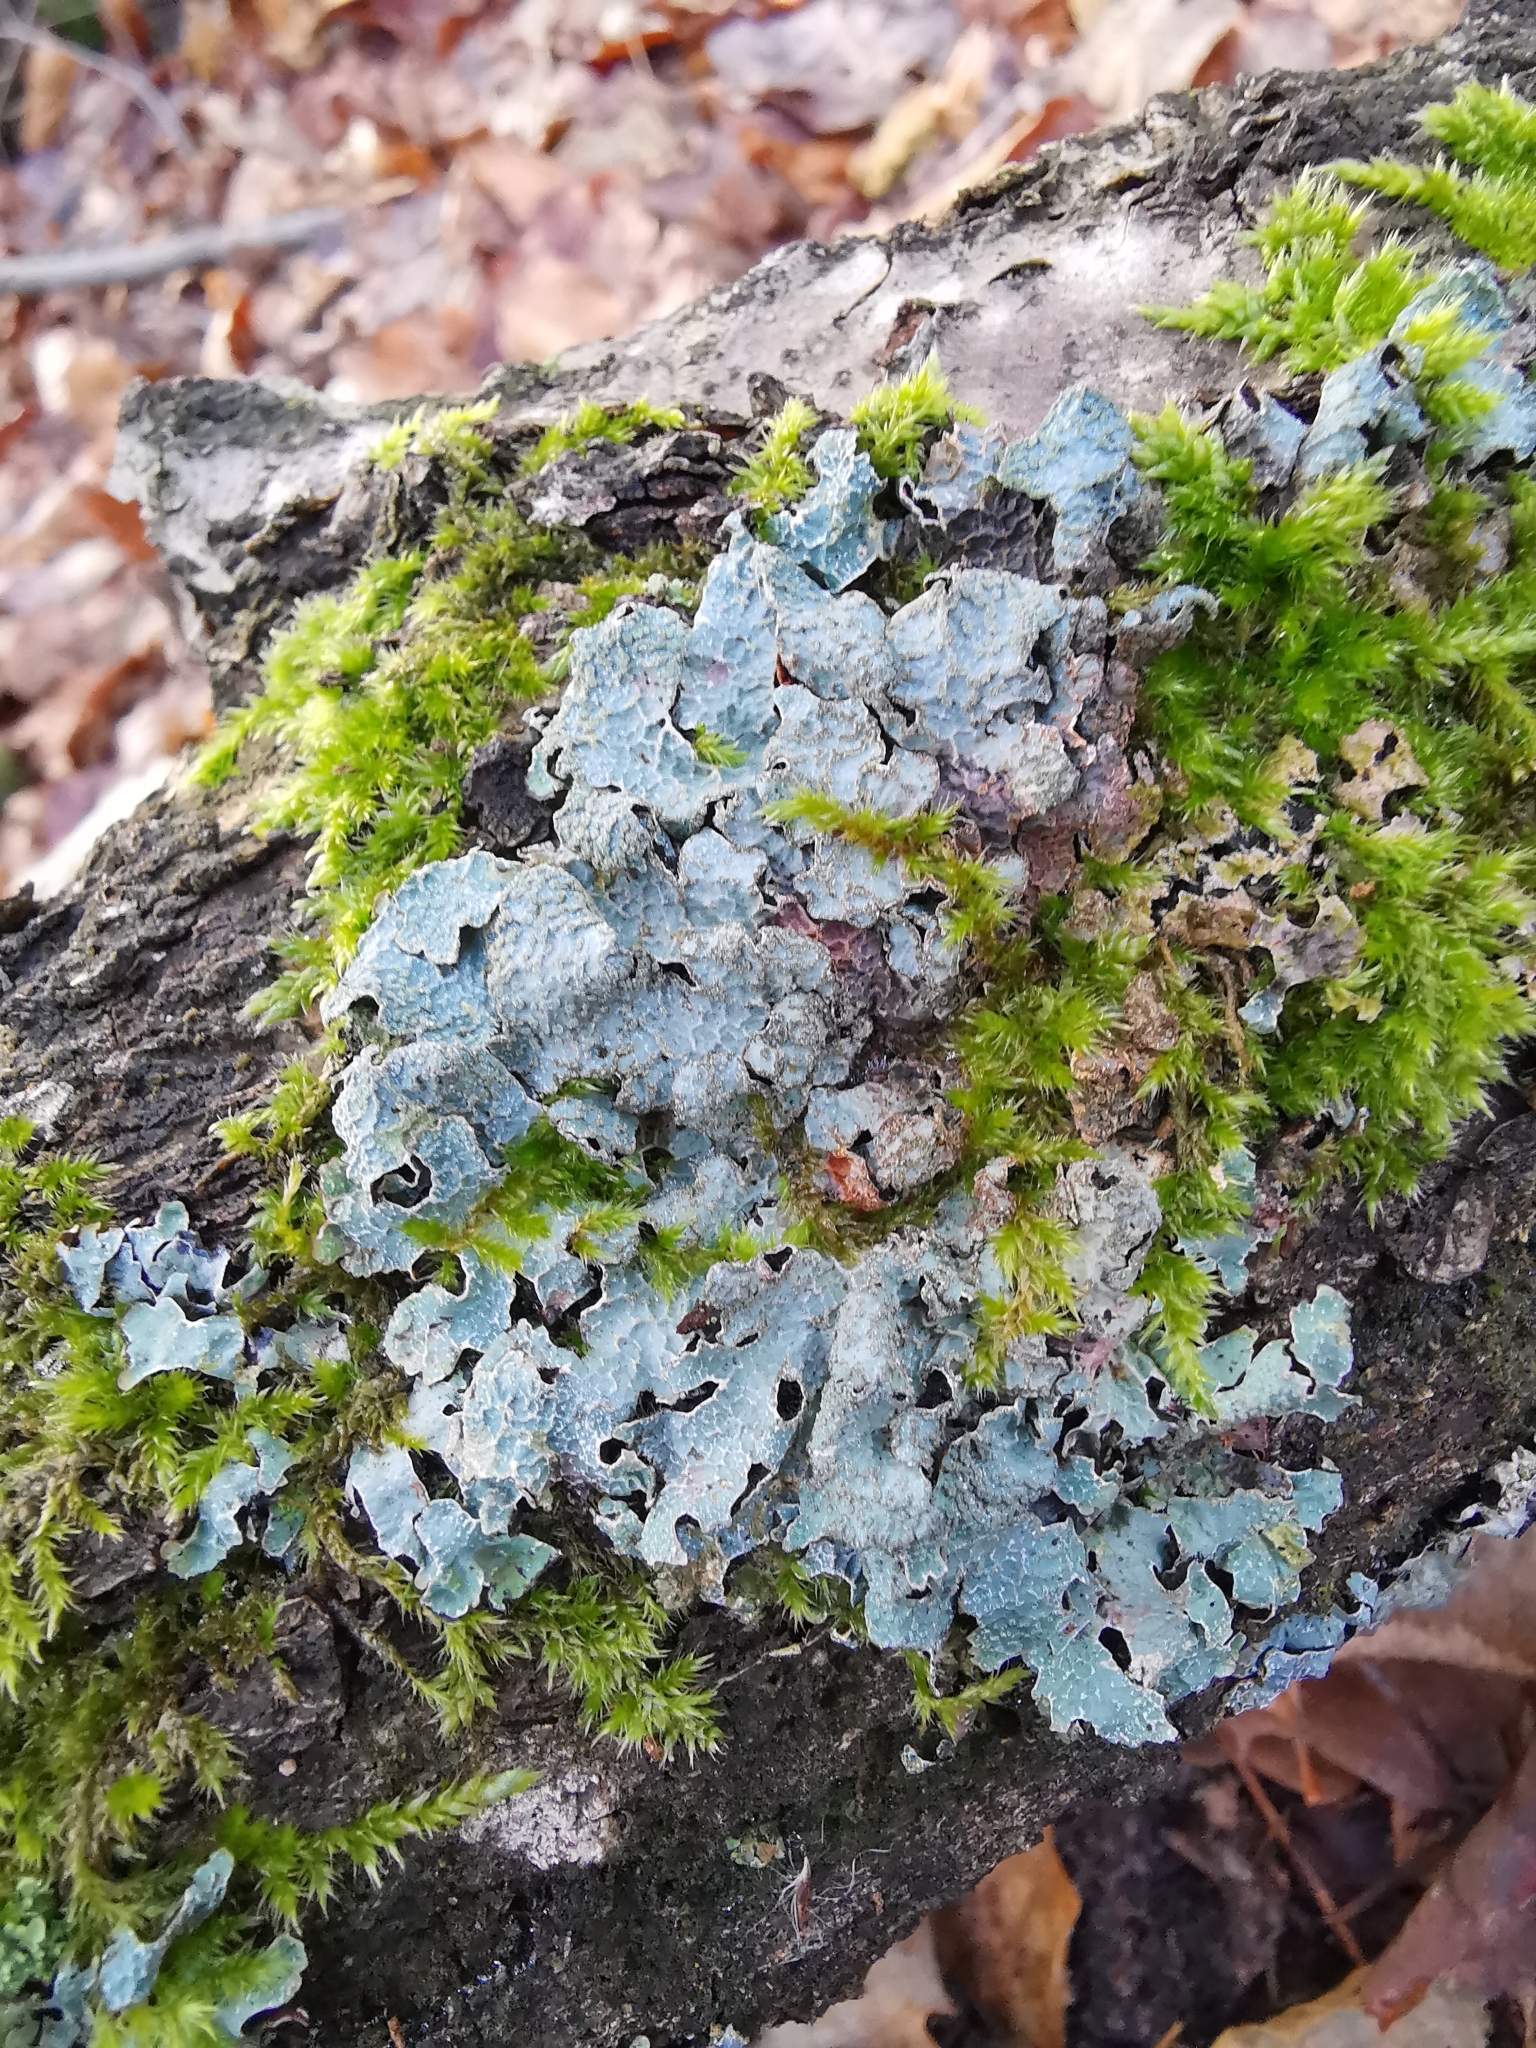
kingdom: Fungi
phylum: Ascomycota
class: Lecanoromycetes
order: Lecanorales
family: Parmeliaceae
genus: Parmelia
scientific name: Parmelia sulcata
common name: Netted shield lichen
